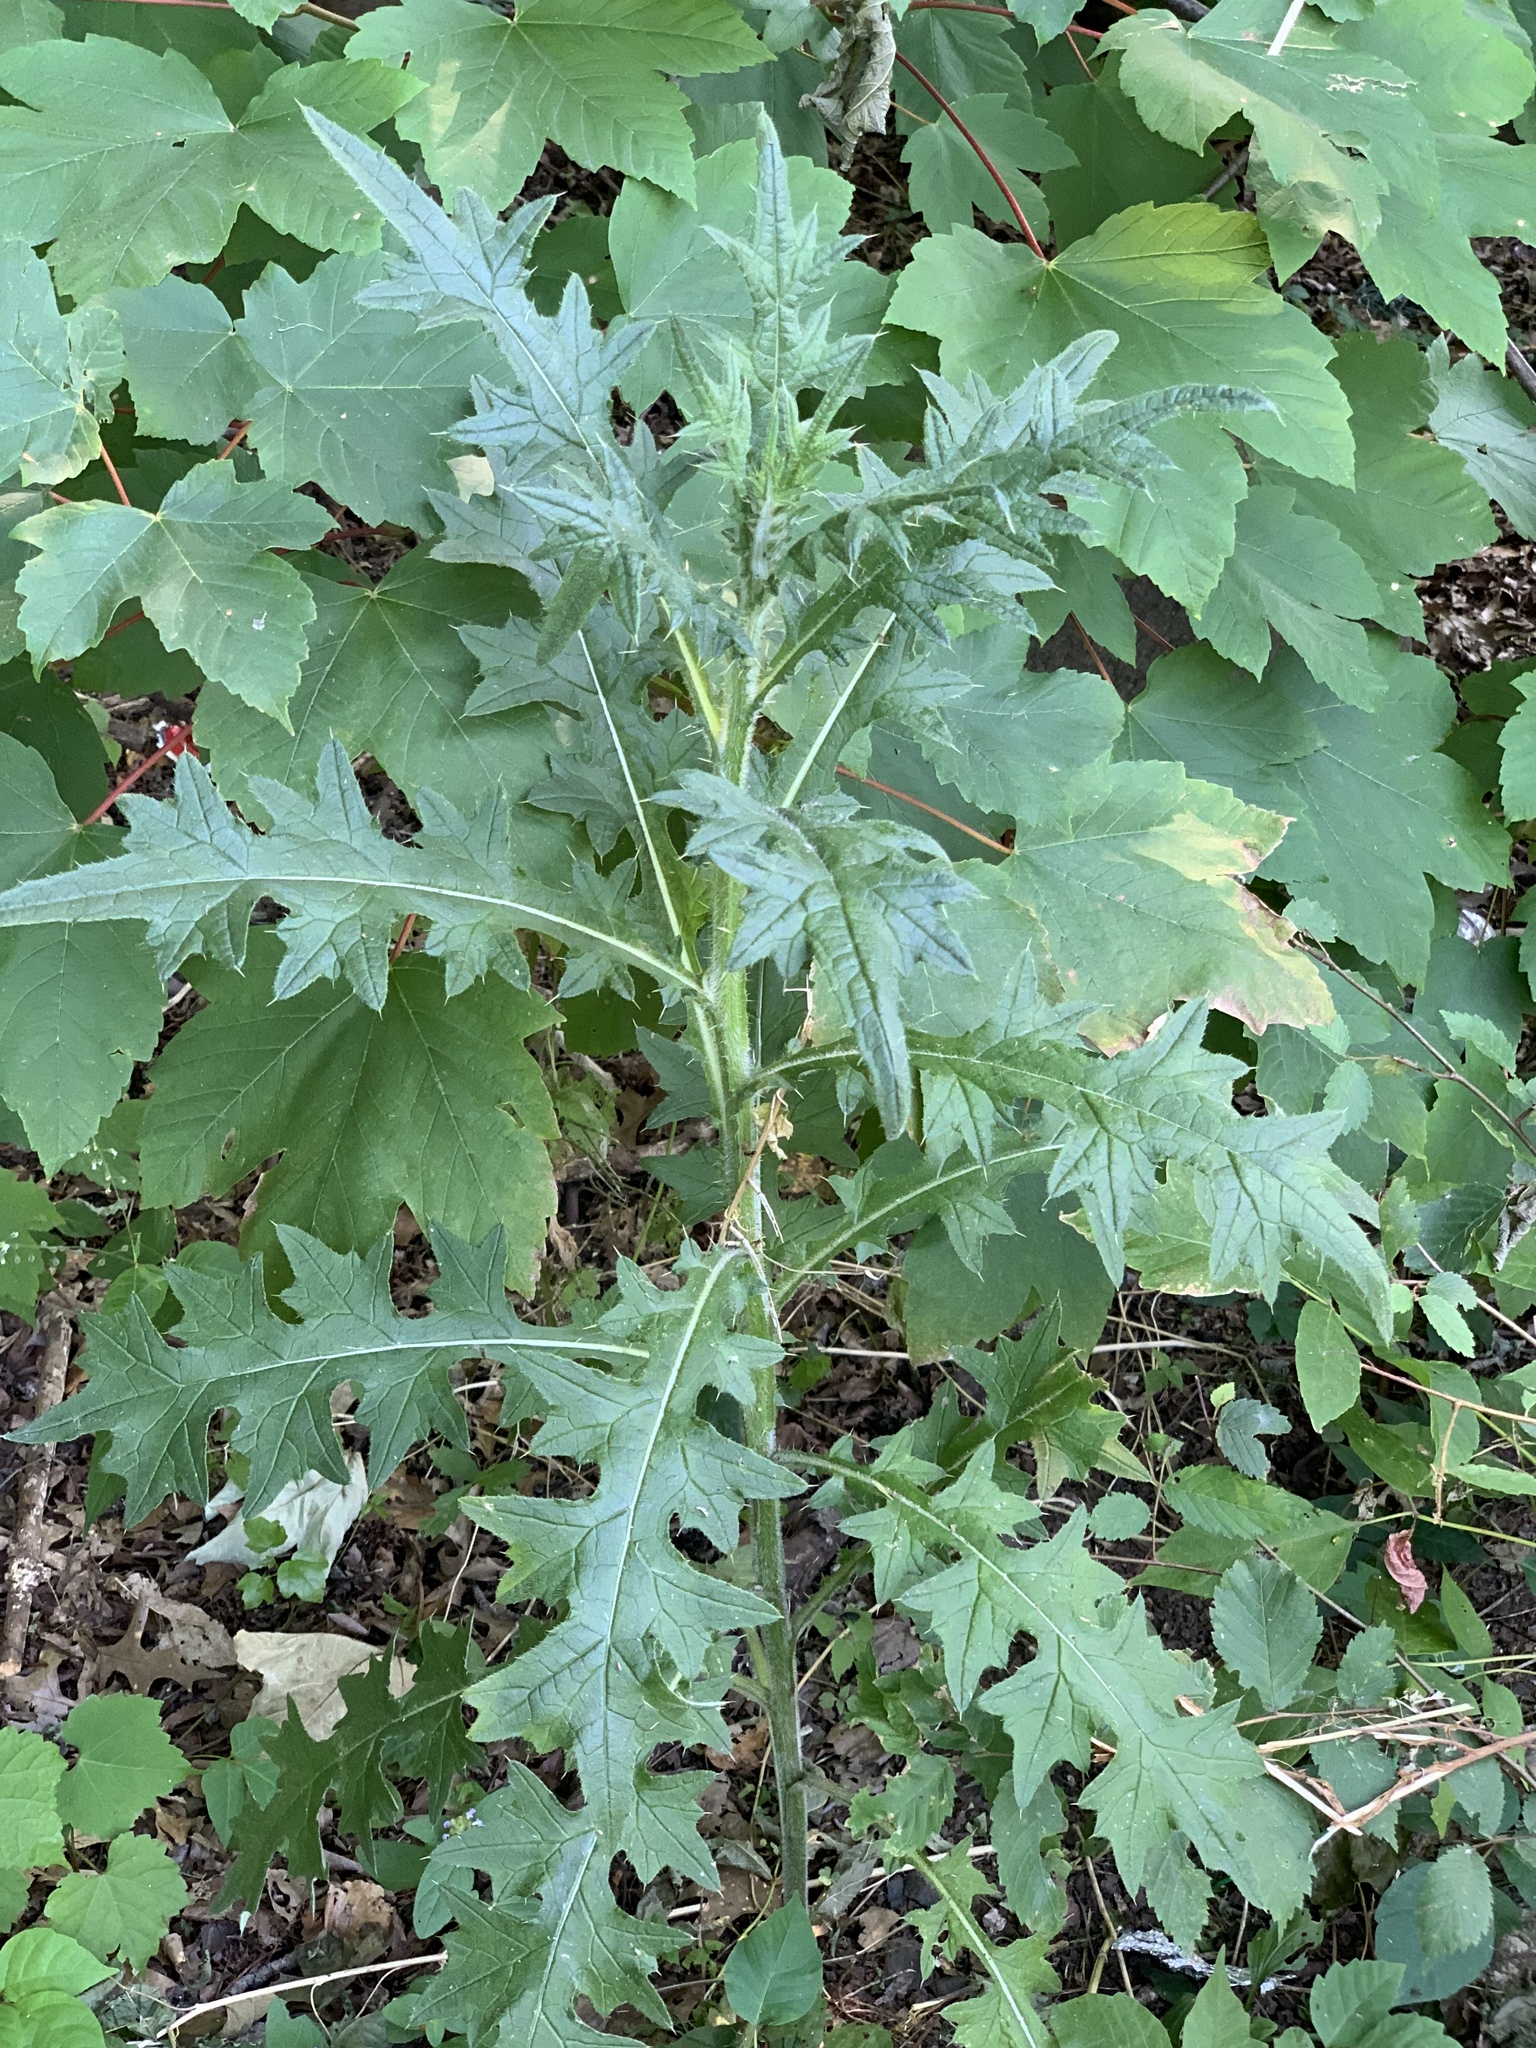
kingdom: Plantae
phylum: Tracheophyta
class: Magnoliopsida
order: Asterales
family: Asteraceae
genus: Cirsium
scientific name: Cirsium vulgare
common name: Bull thistle
